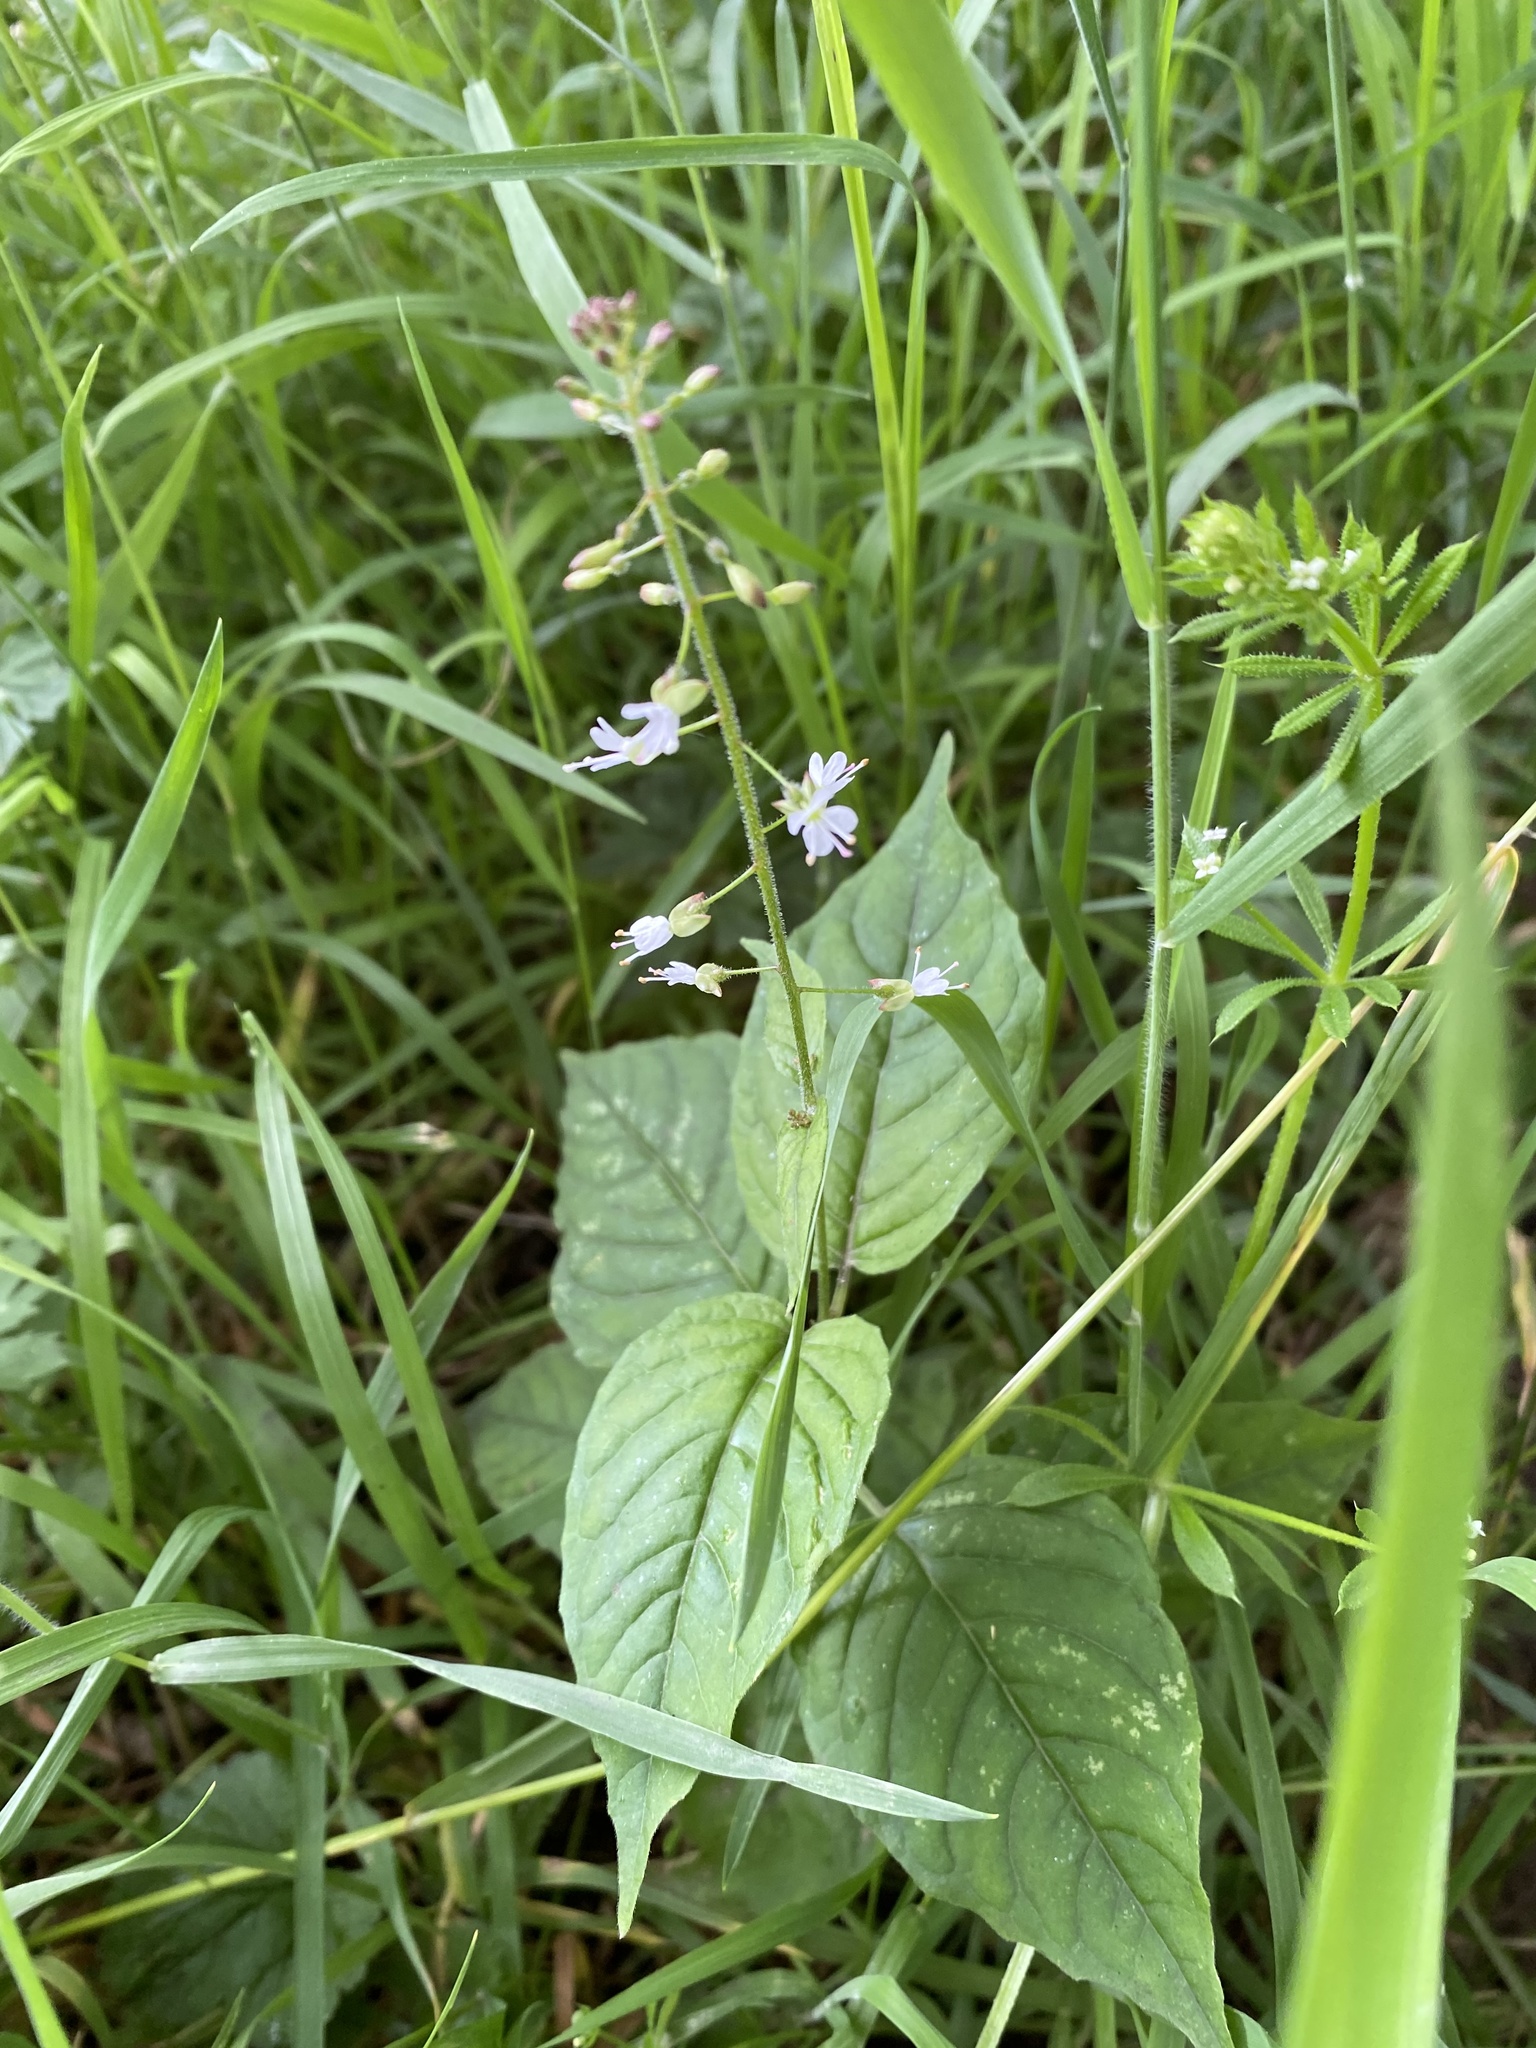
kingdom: Plantae
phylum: Tracheophyta
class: Magnoliopsida
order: Myrtales
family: Onagraceae
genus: Circaea
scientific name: Circaea lutetiana
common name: Enchanter's-nightshade
